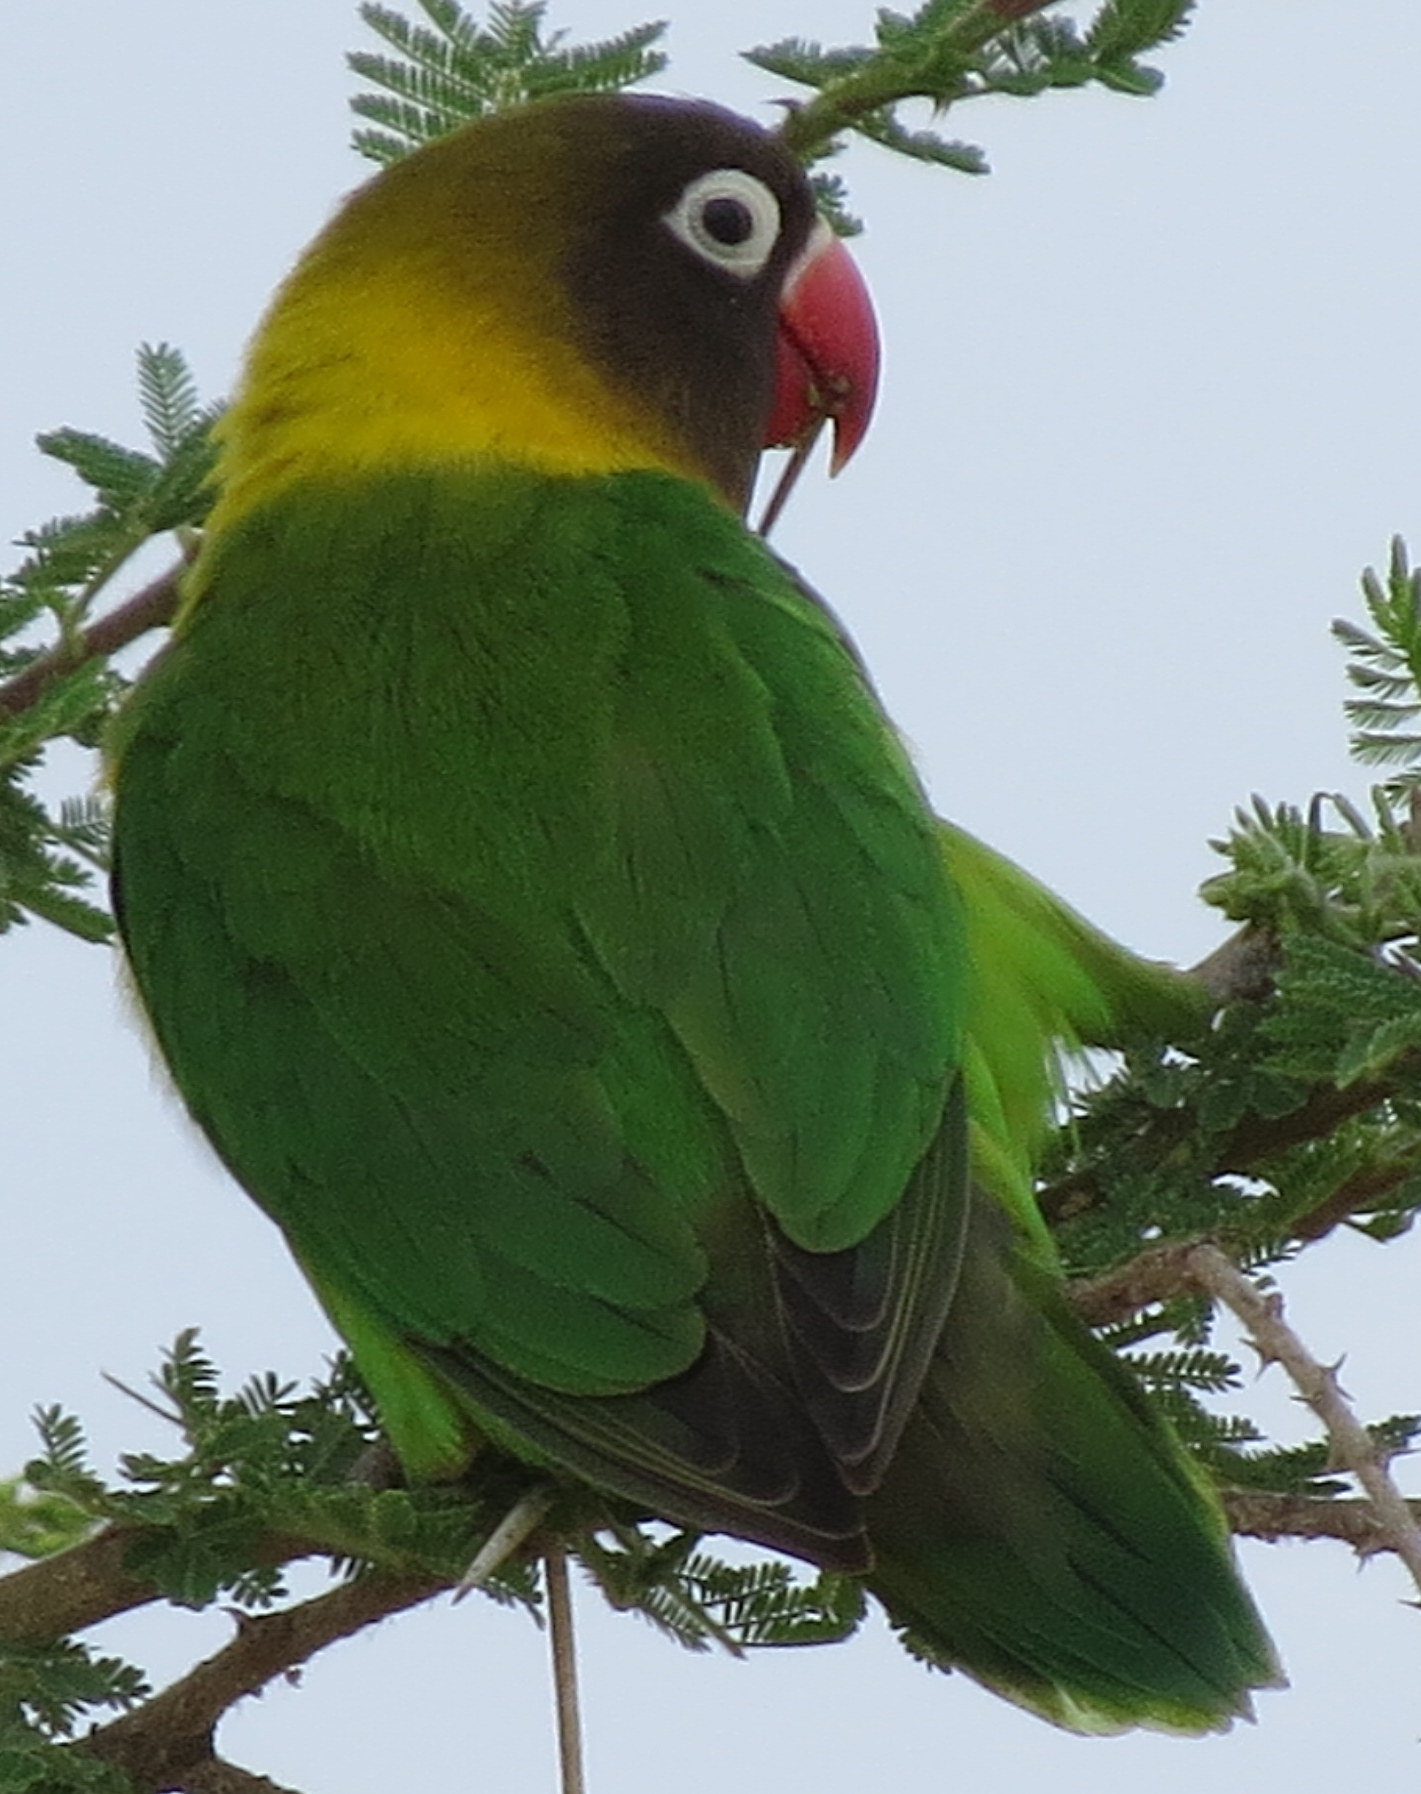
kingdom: Animalia
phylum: Chordata
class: Aves
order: Psittaciformes
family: Psittacidae
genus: Agapornis
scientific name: Agapornis personatus
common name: Yellow-collared lovebird
